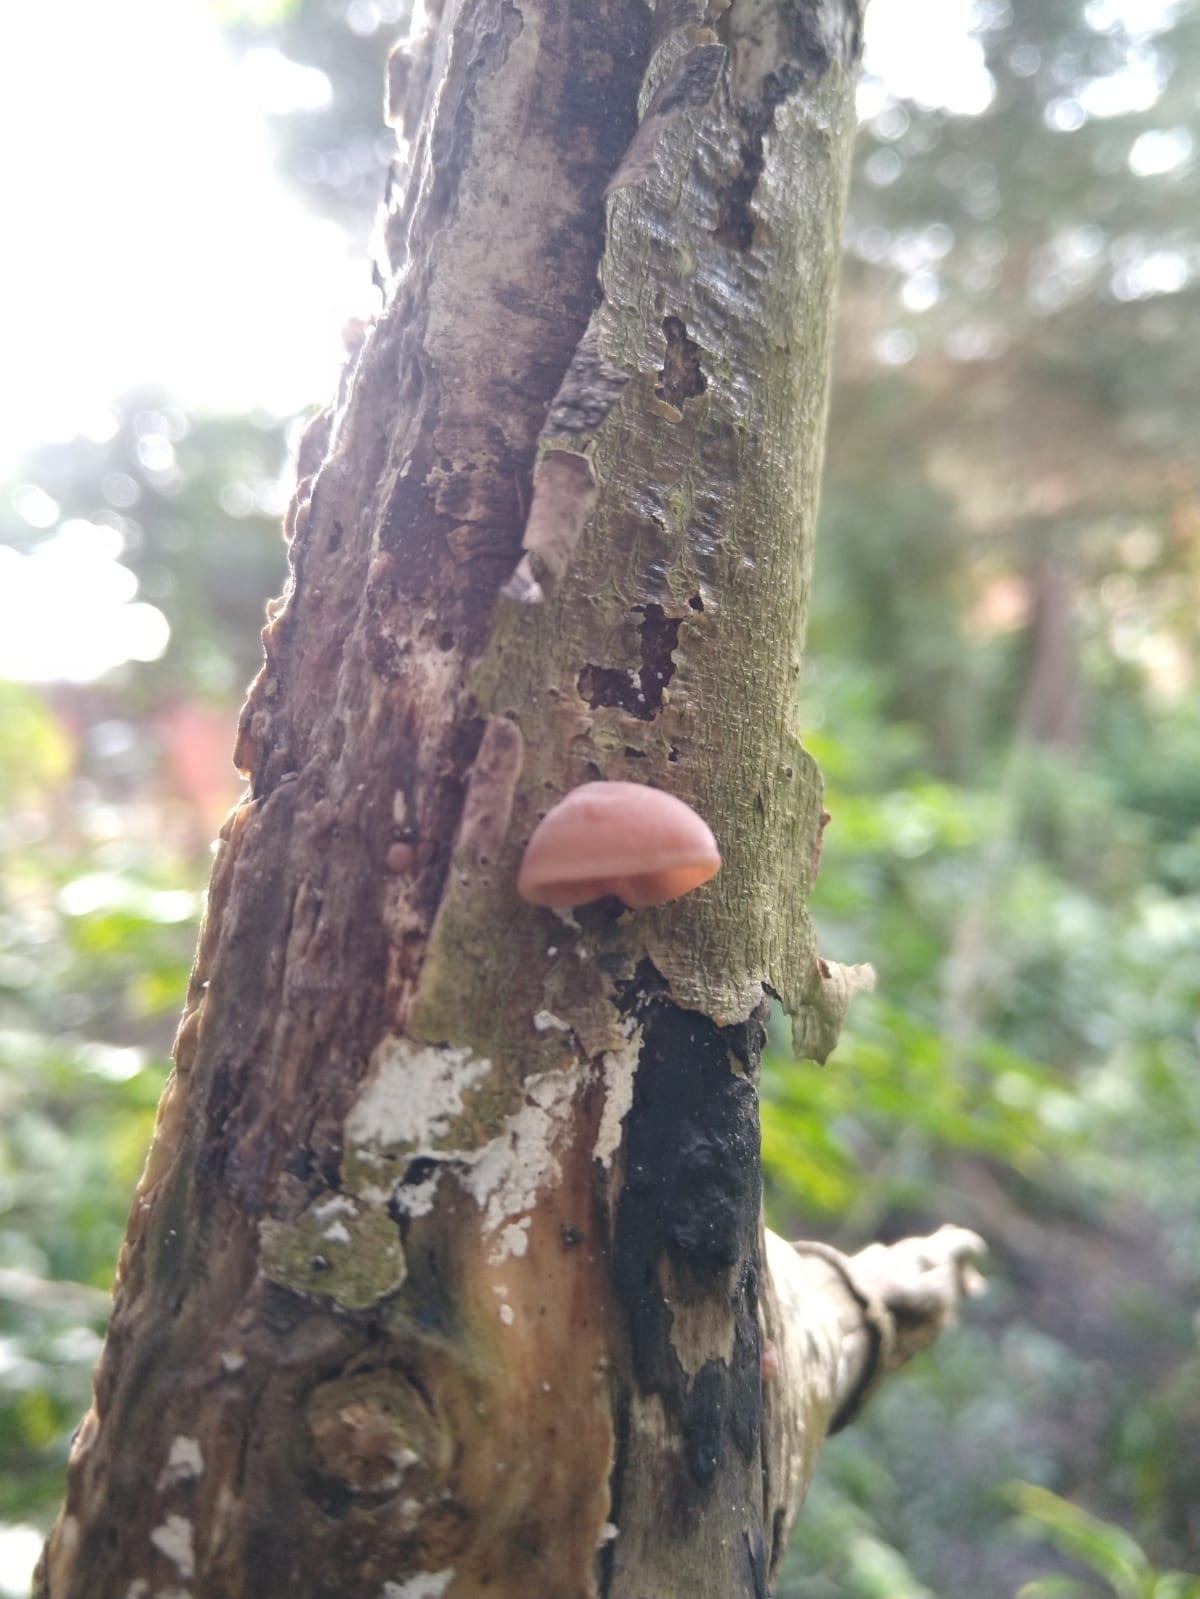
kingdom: Fungi
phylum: Basidiomycota
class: Agaricomycetes
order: Auriculariales
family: Auriculariaceae
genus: Auricularia
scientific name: Auricularia auricula-judae
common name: Jelly ear
